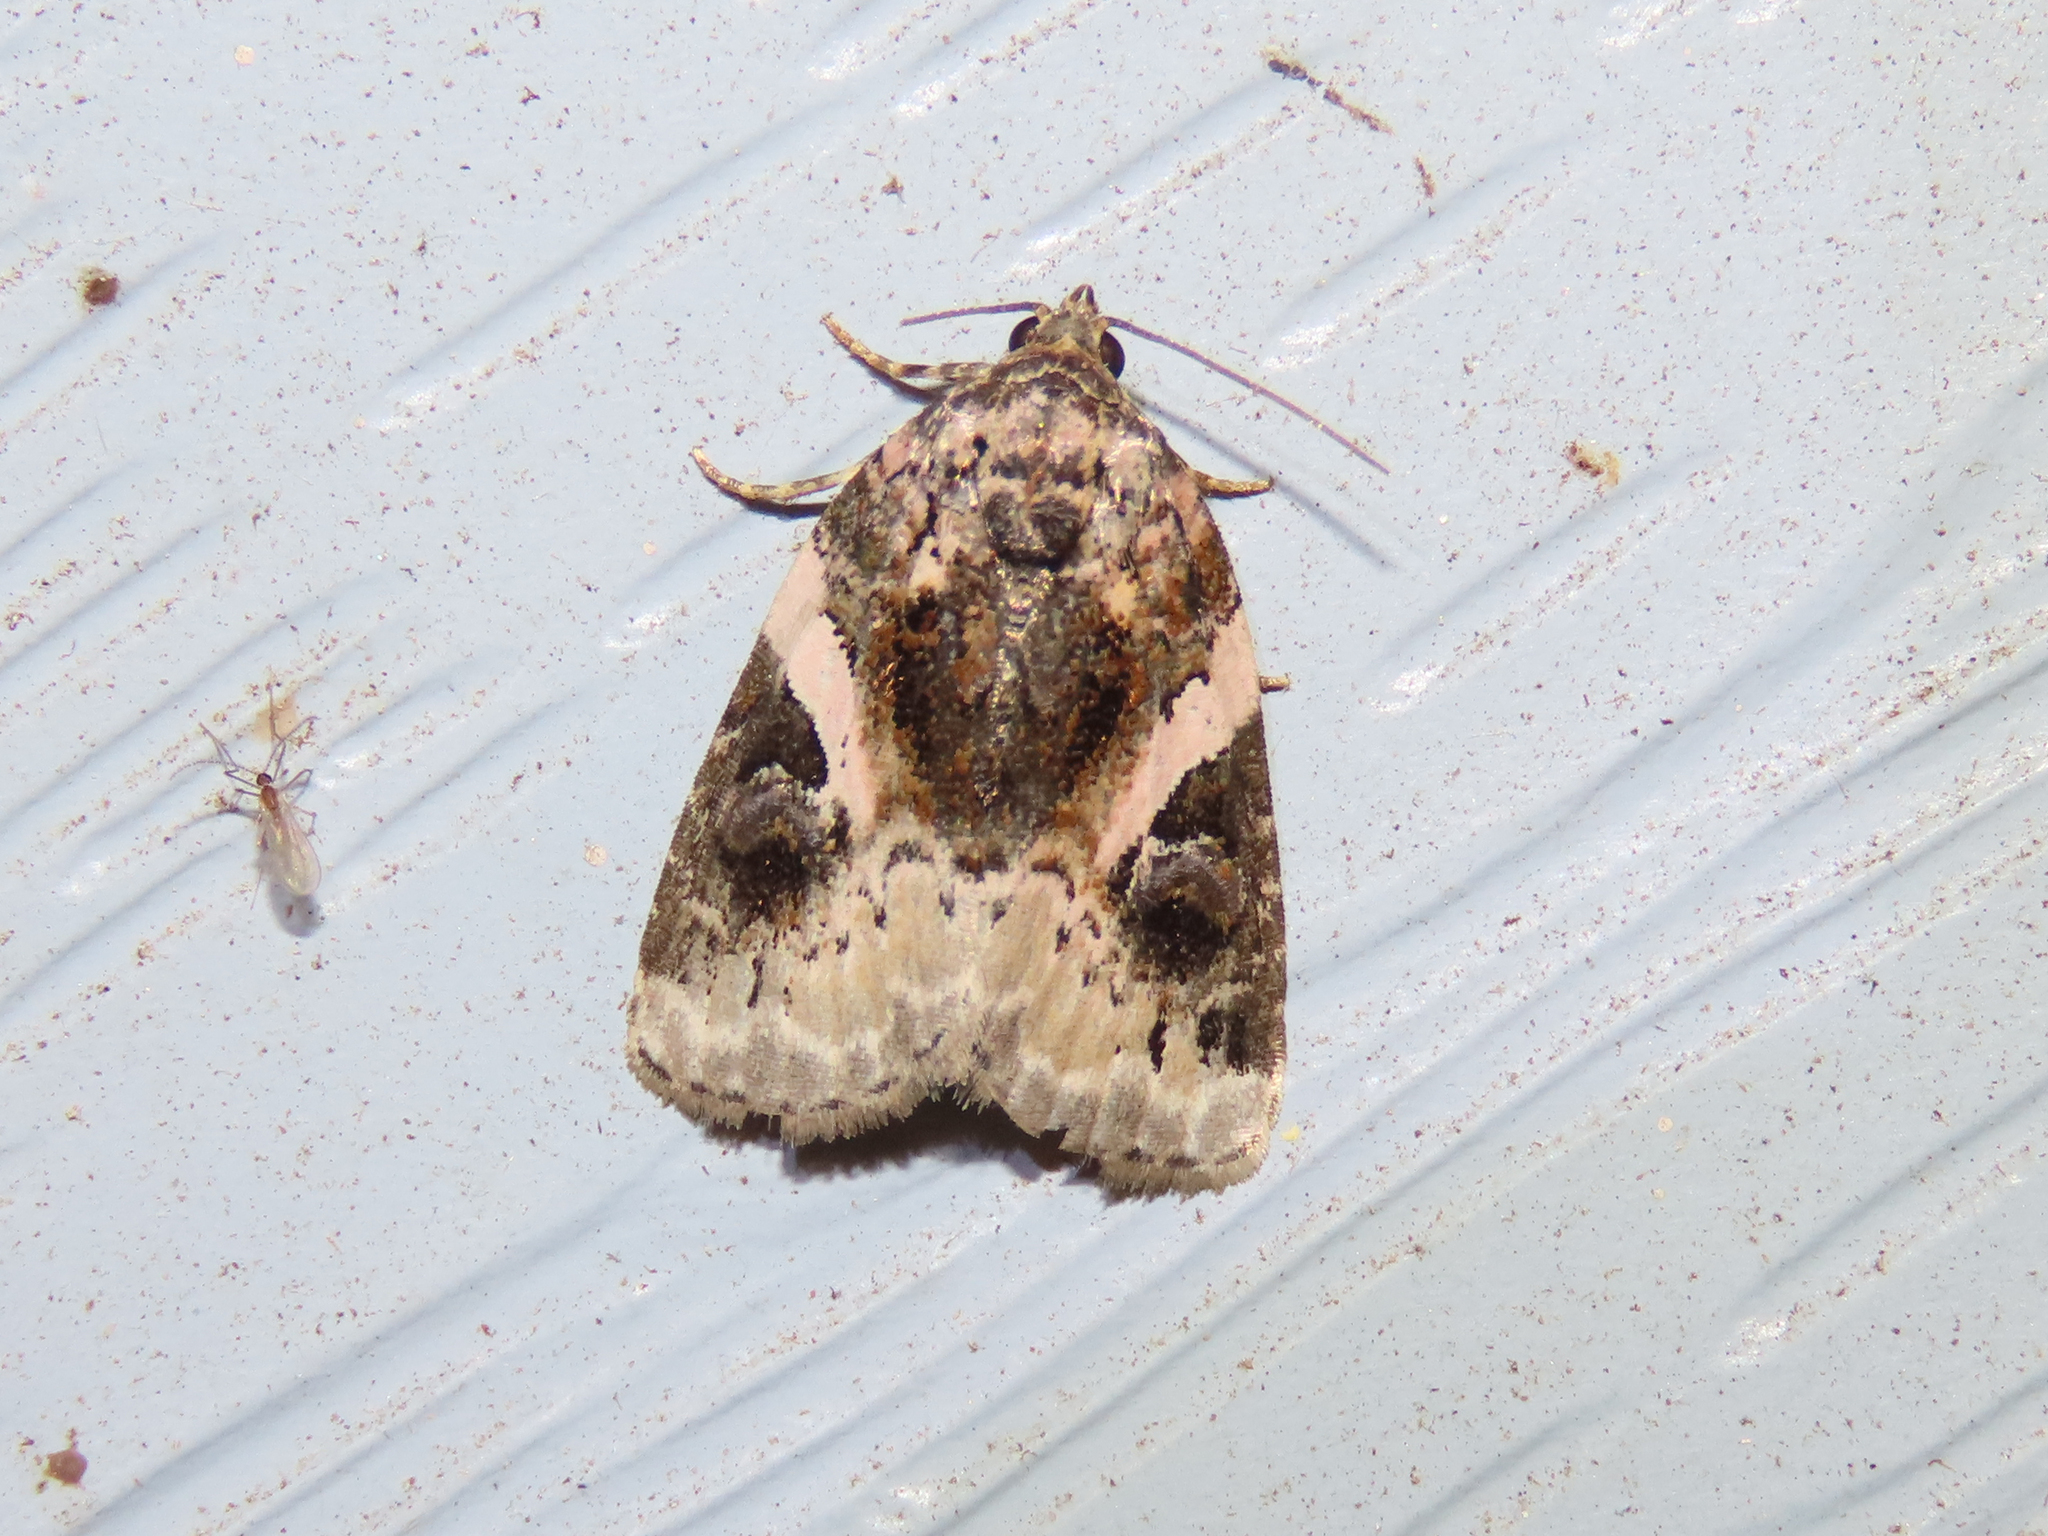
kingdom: Animalia
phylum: Arthropoda
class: Insecta
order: Lepidoptera
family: Noctuidae
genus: Pseudeustrotia
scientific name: Pseudeustrotia carneola
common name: Pink-barred lithacodia moth
